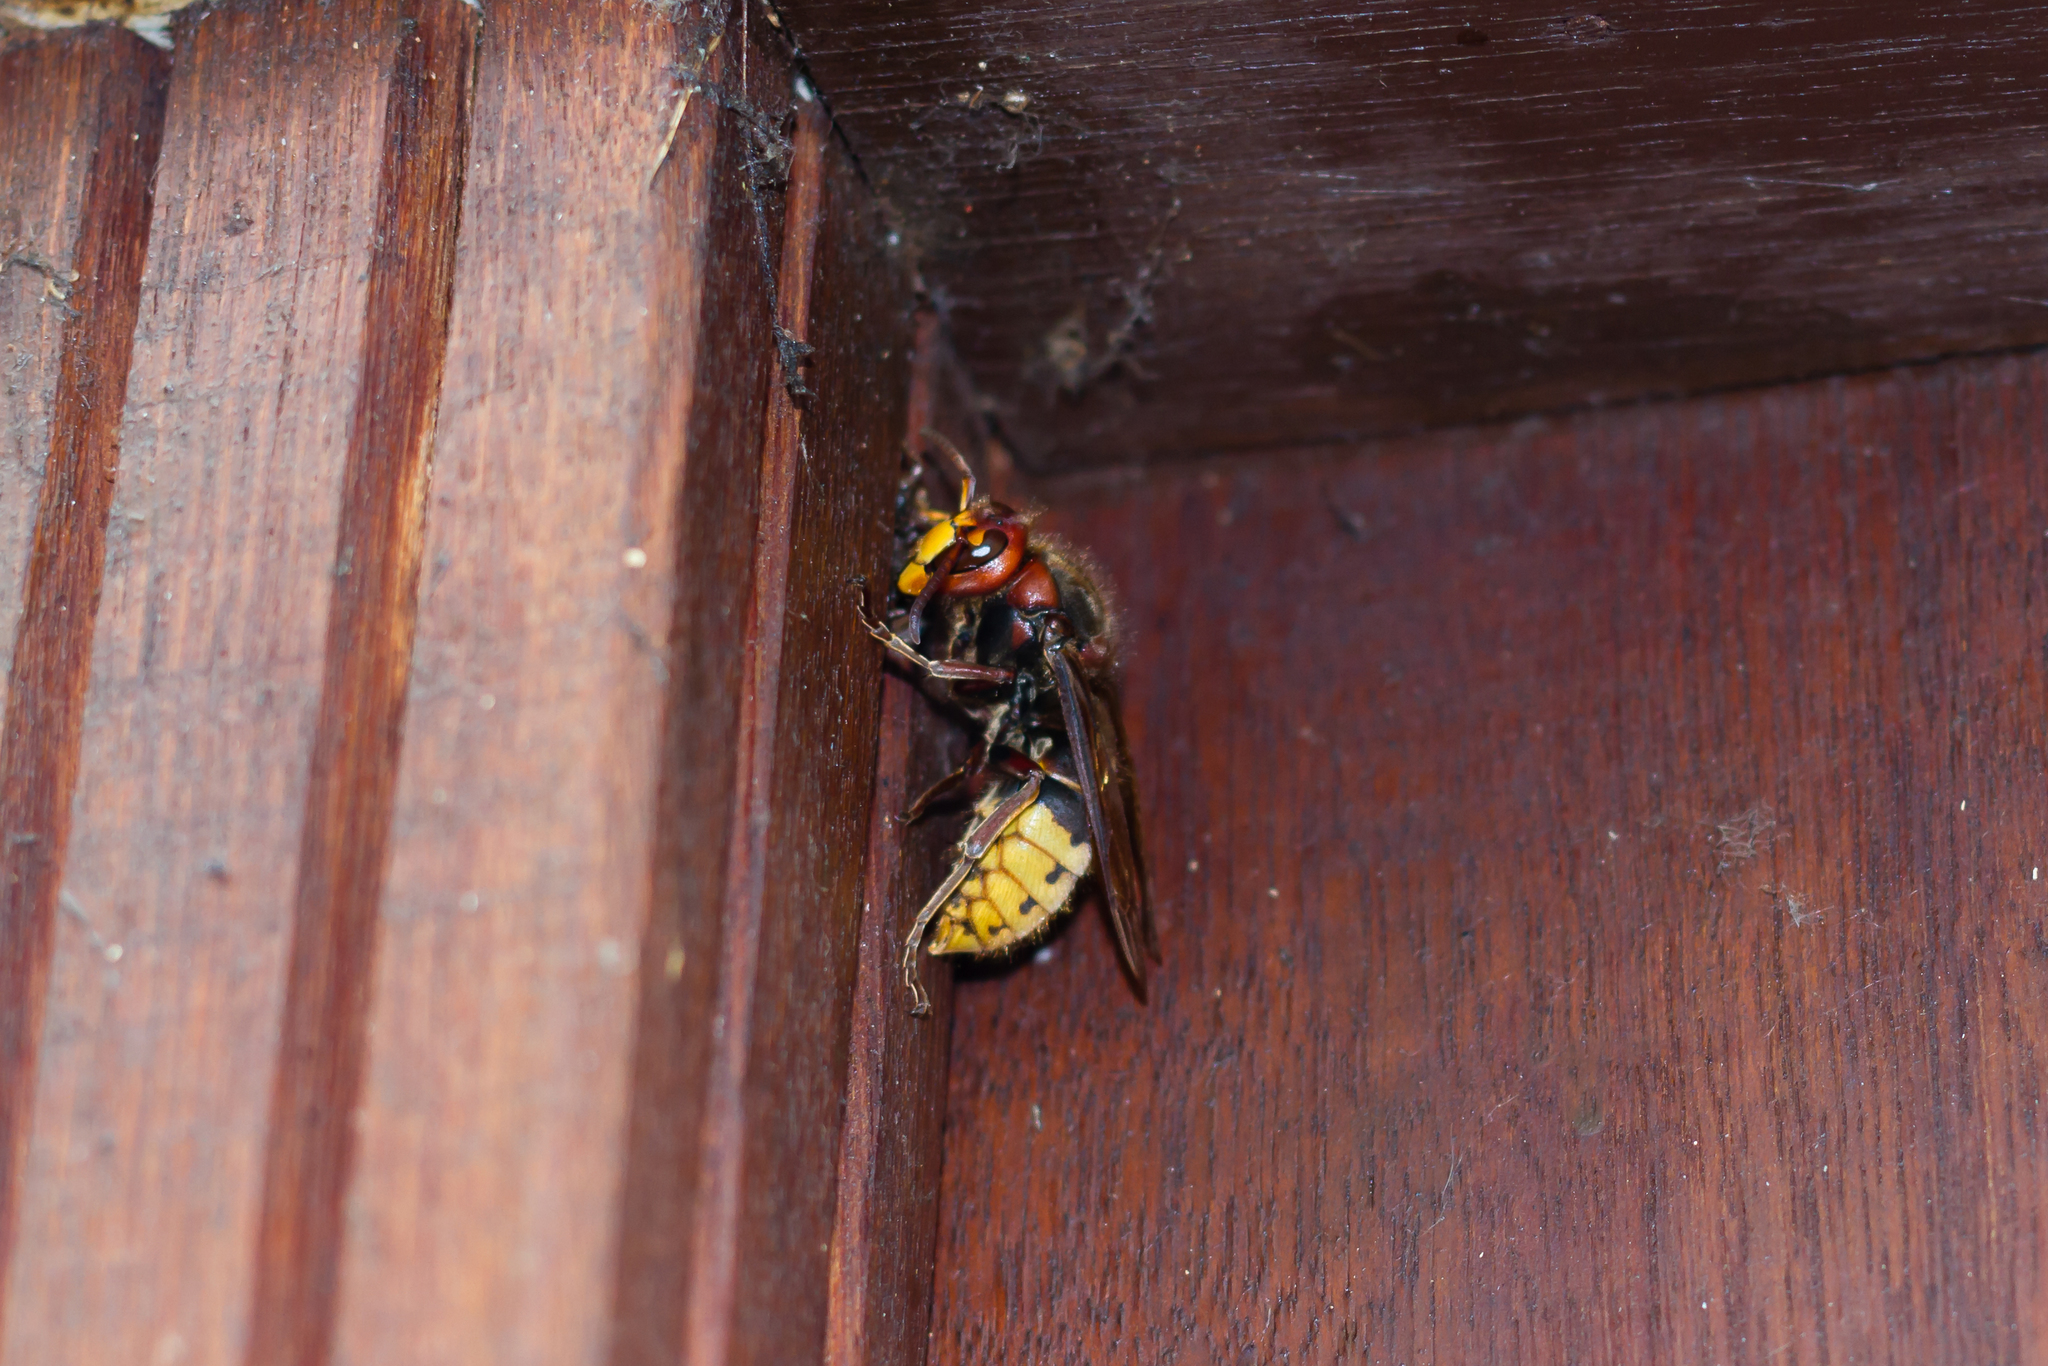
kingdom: Animalia
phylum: Arthropoda
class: Insecta
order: Hymenoptera
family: Vespidae
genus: Vespa
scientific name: Vespa crabro
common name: Hornet
